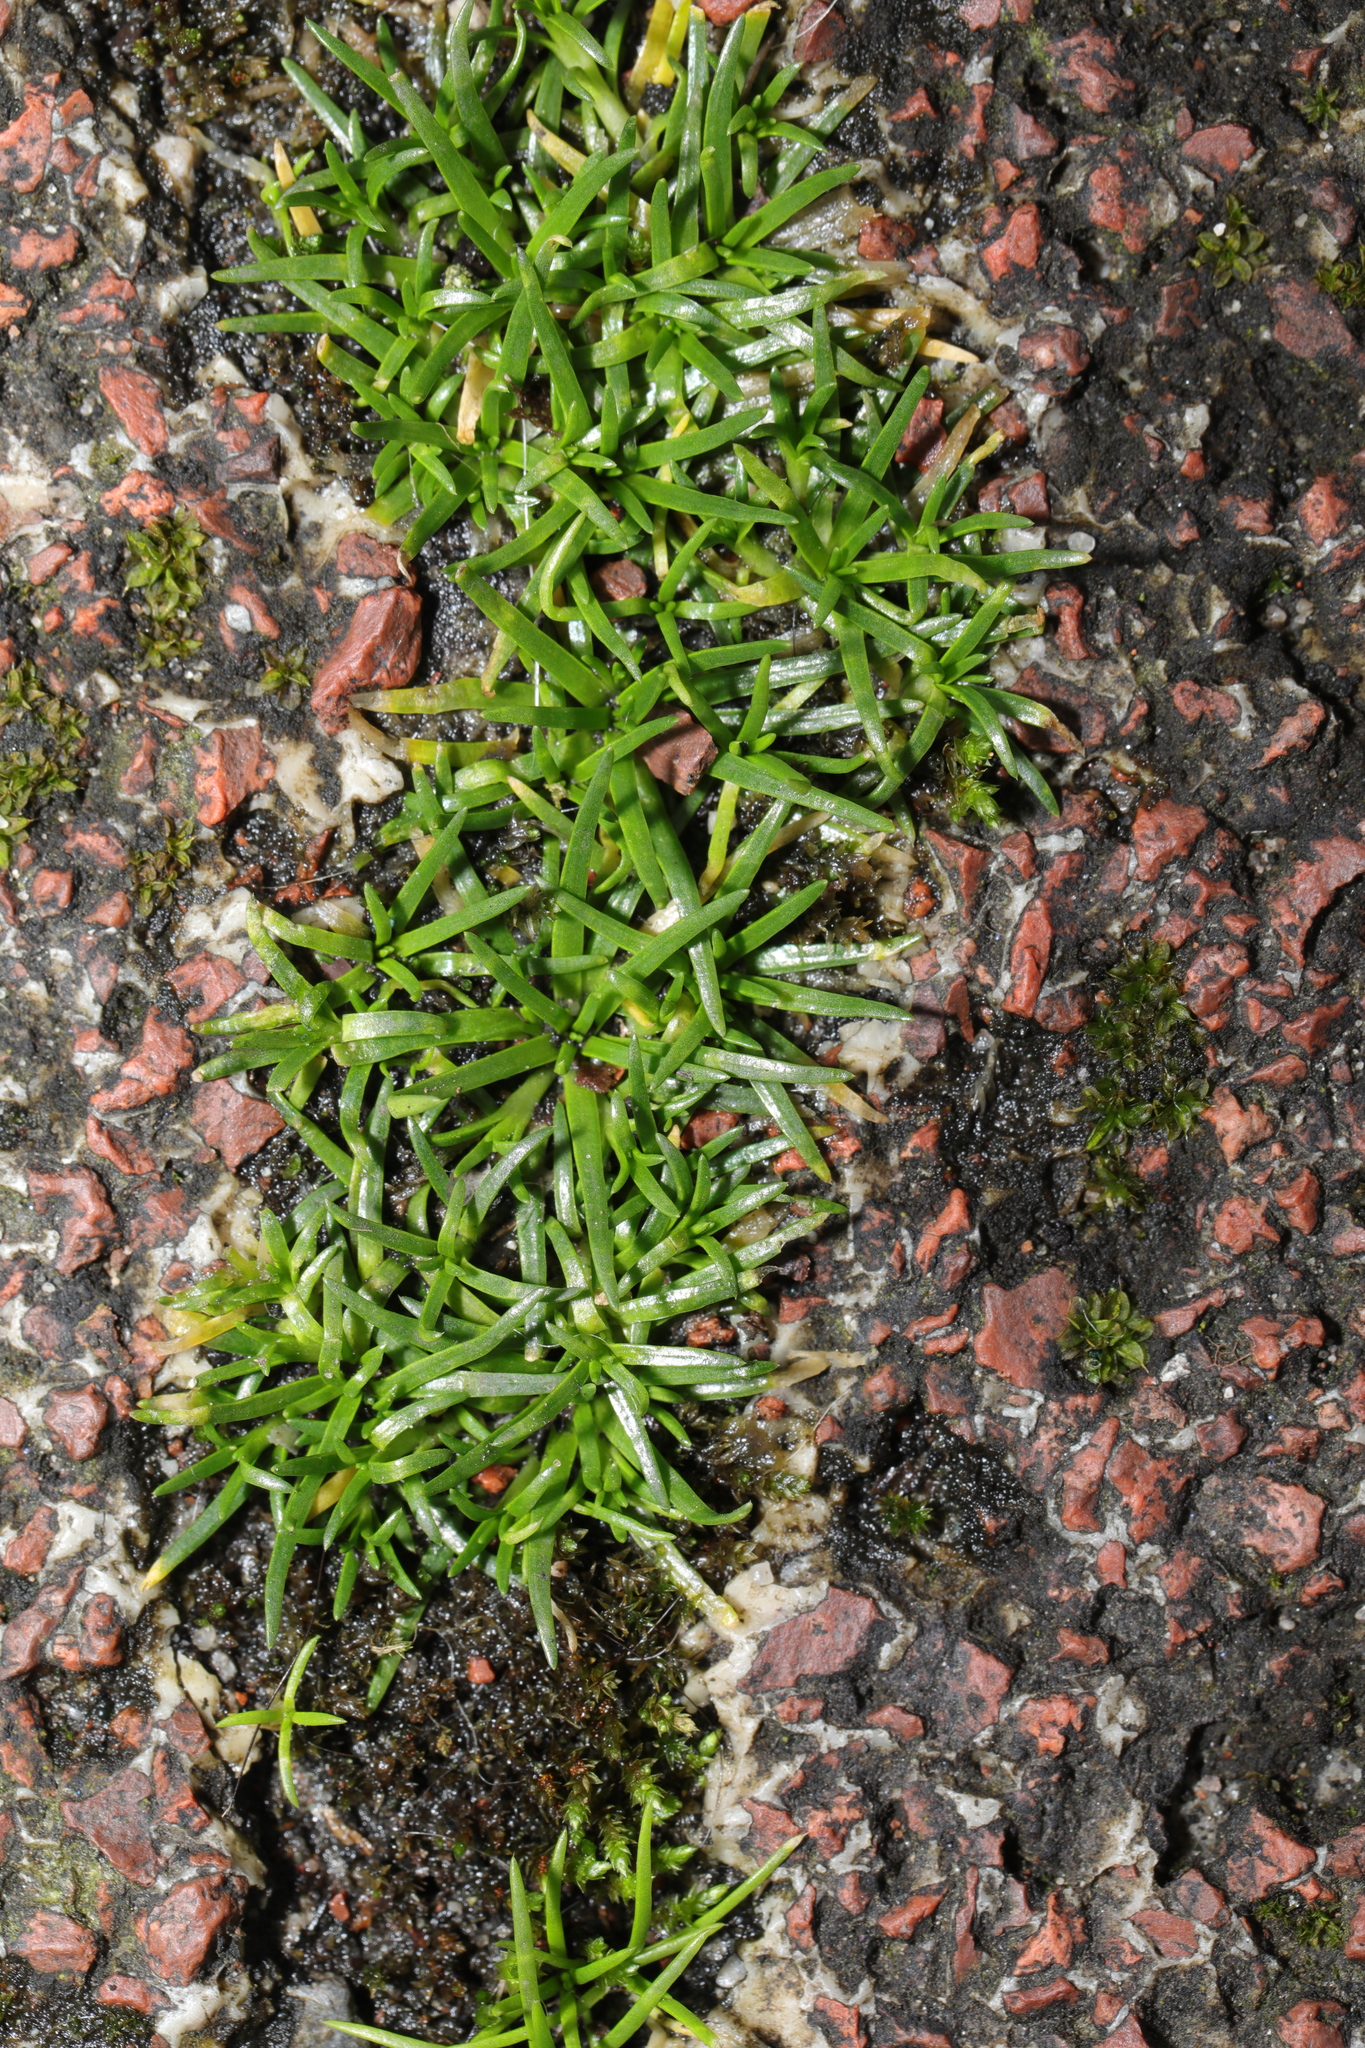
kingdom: Plantae
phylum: Tracheophyta
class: Magnoliopsida
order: Caryophyllales
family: Caryophyllaceae
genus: Sagina
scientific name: Sagina procumbens
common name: Procumbent pearlwort
